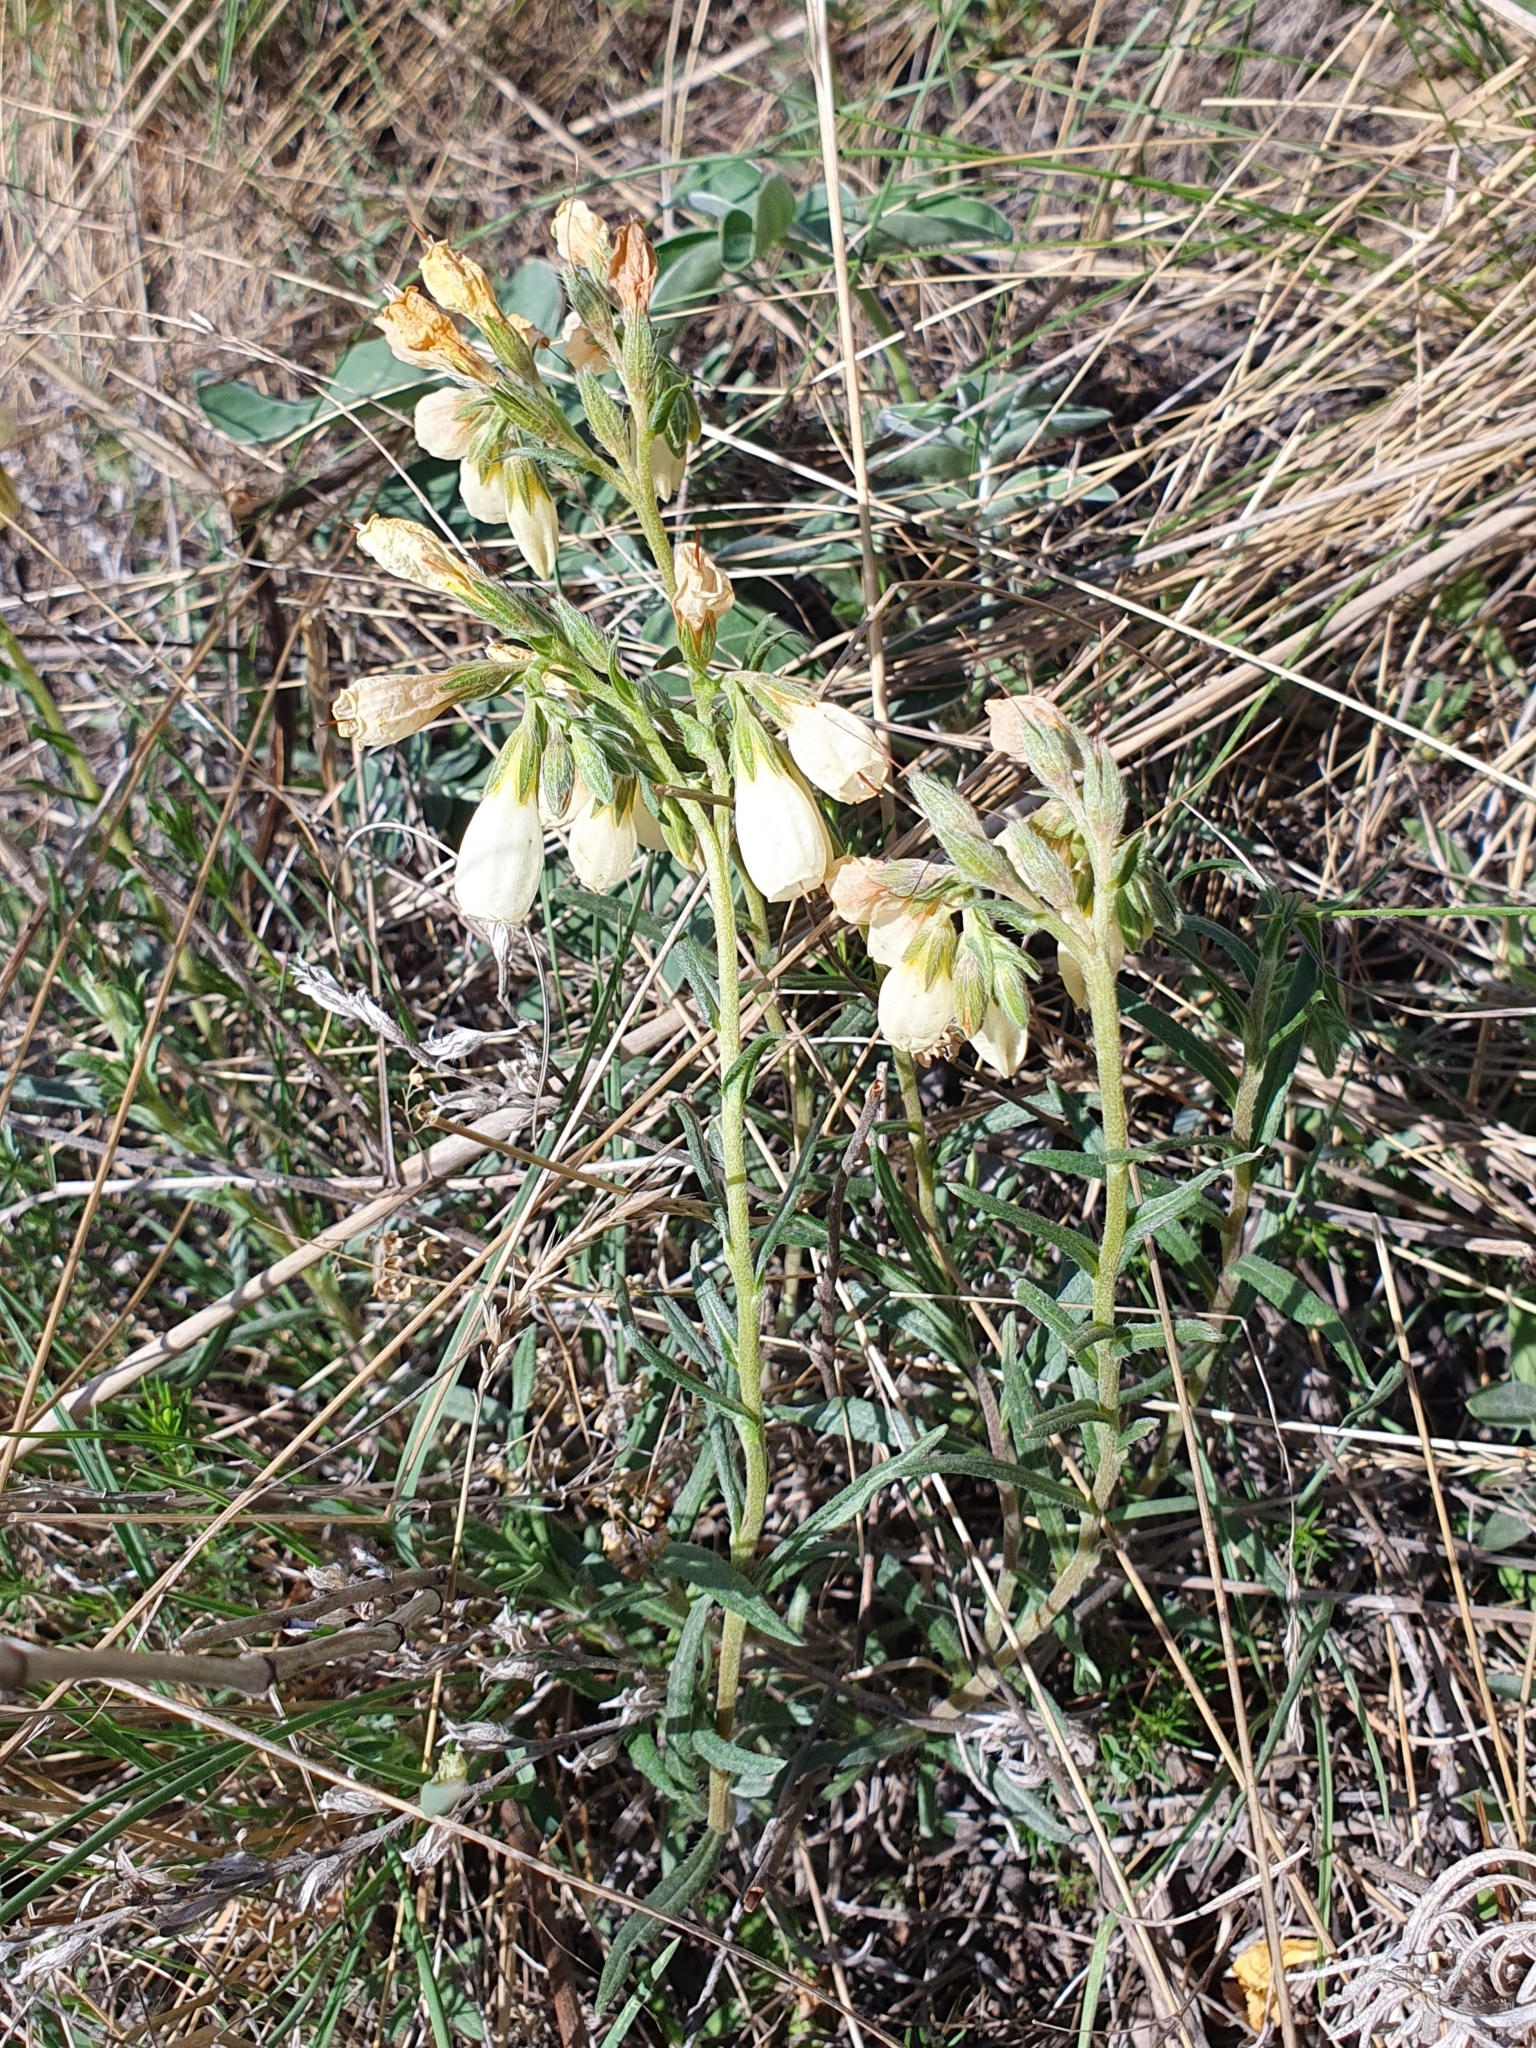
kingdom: Plantae
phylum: Tracheophyta
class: Magnoliopsida
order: Boraginales
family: Boraginaceae
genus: Onosma
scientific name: Onosma simplicissima
